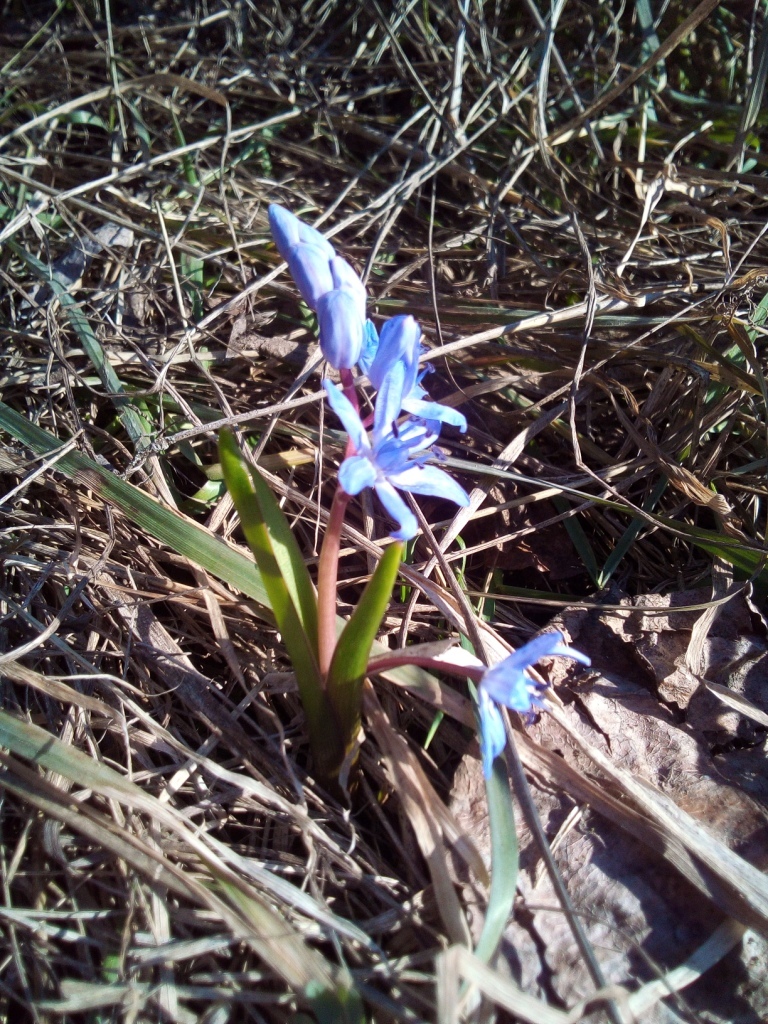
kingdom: Plantae
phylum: Tracheophyta
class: Liliopsida
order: Asparagales
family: Asparagaceae
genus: Scilla
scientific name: Scilla bifolia
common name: Alpine squill
